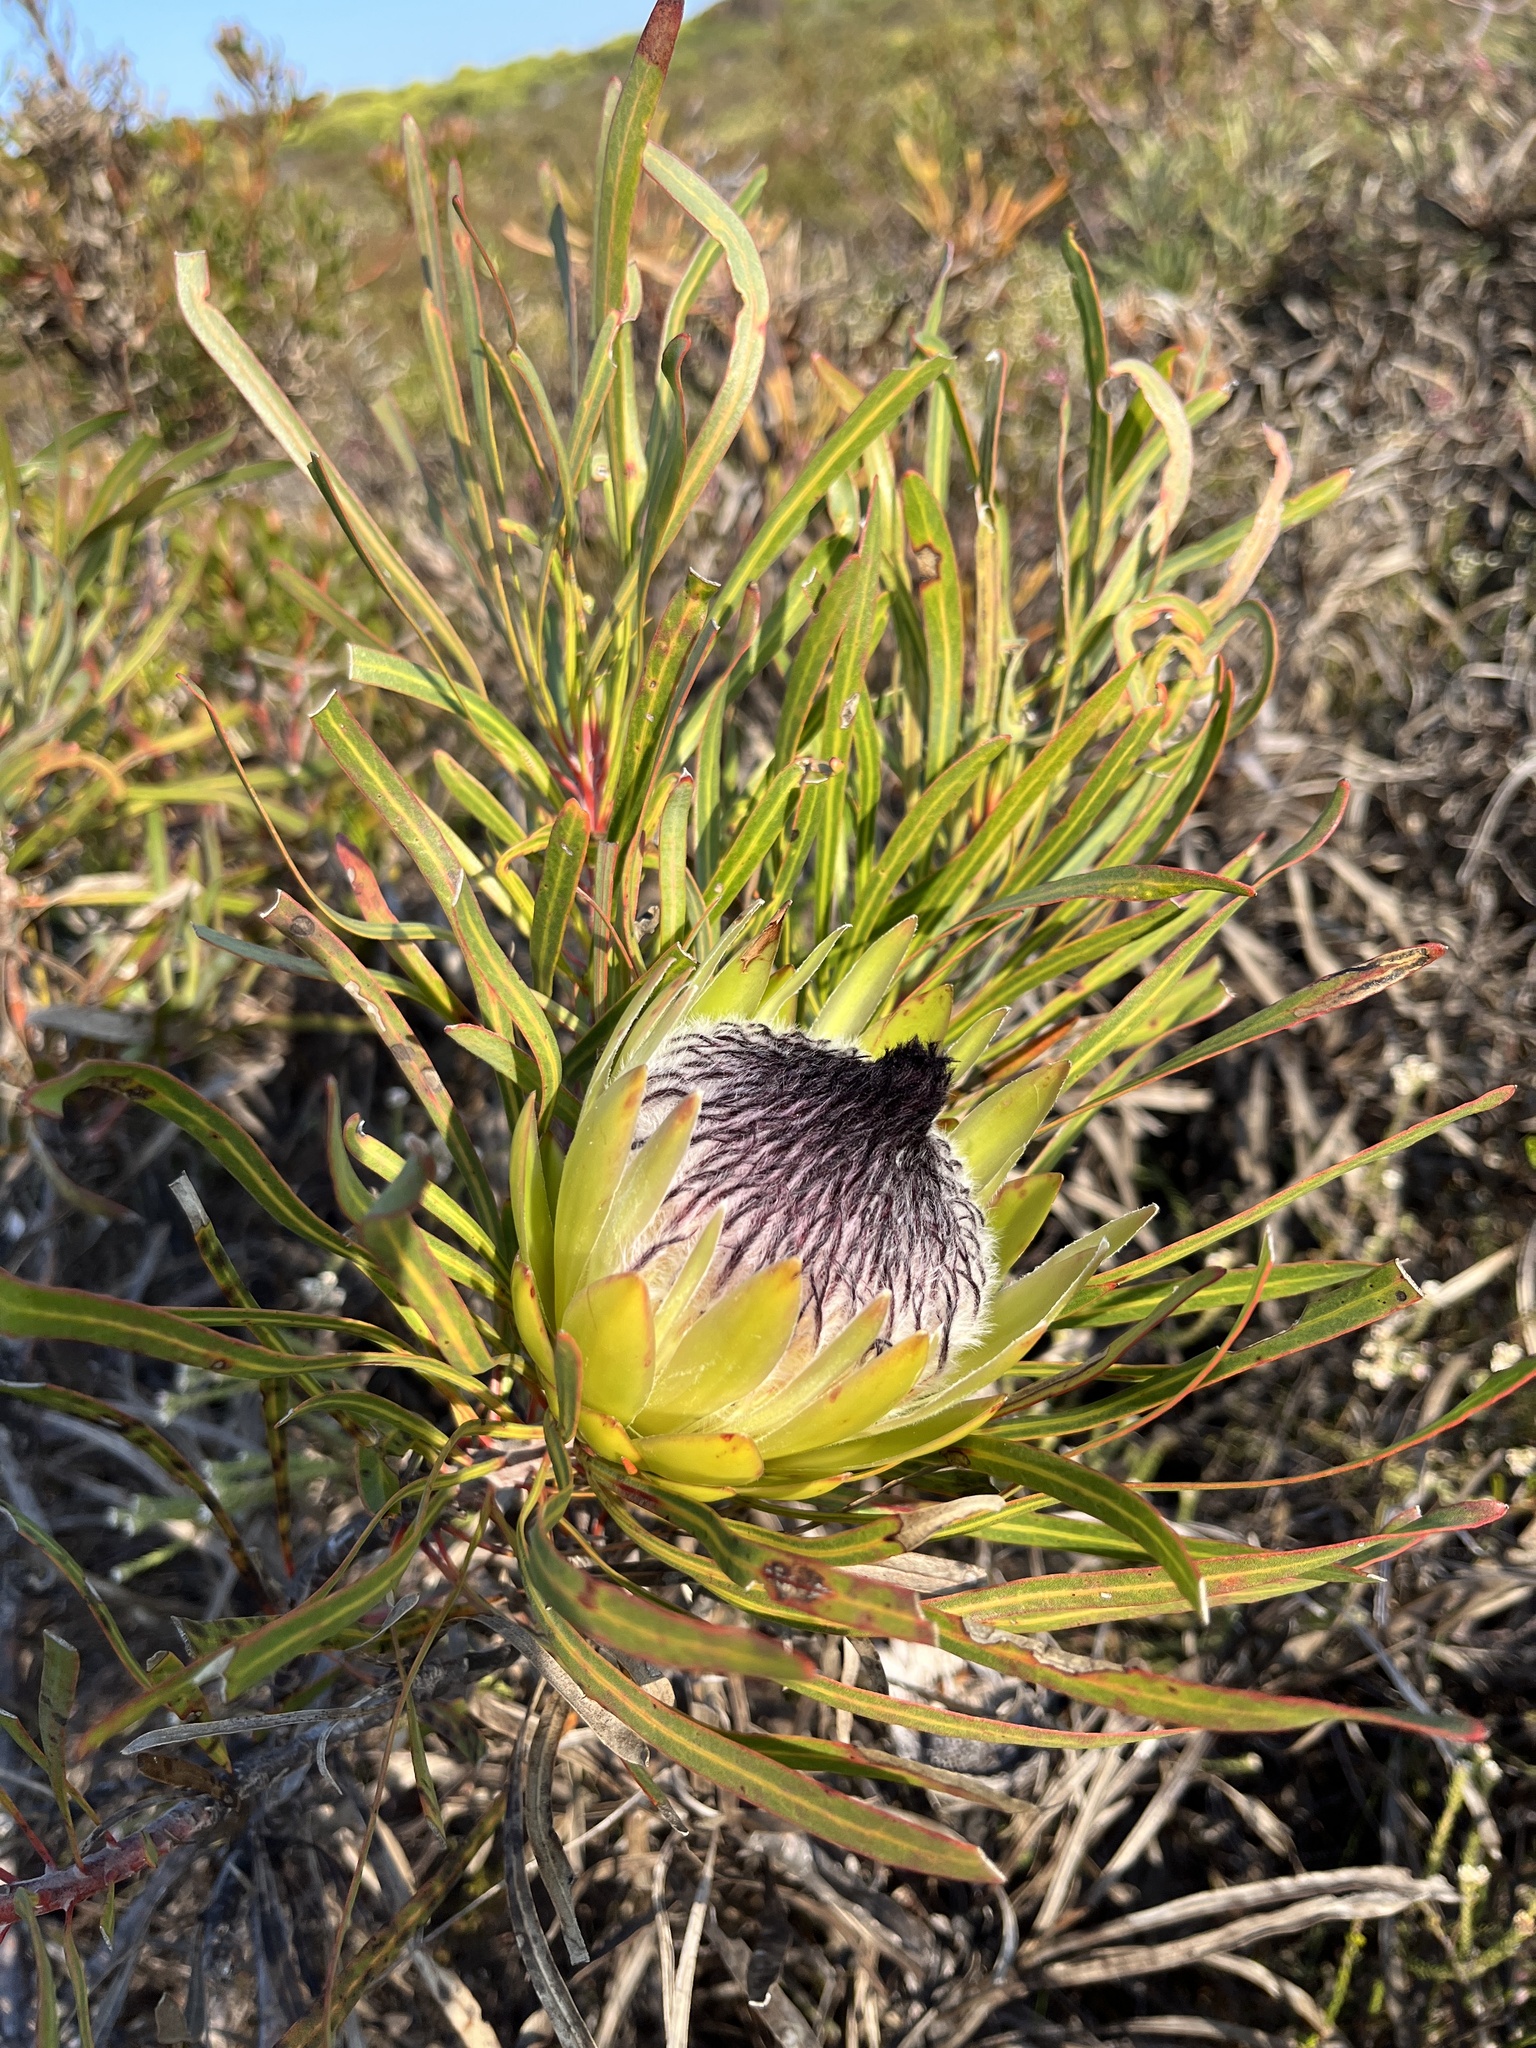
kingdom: Plantae
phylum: Tracheophyta
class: Magnoliopsida
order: Proteales
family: Proteaceae
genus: Protea
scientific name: Protea longifolia
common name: Long-leaf sugarbush
